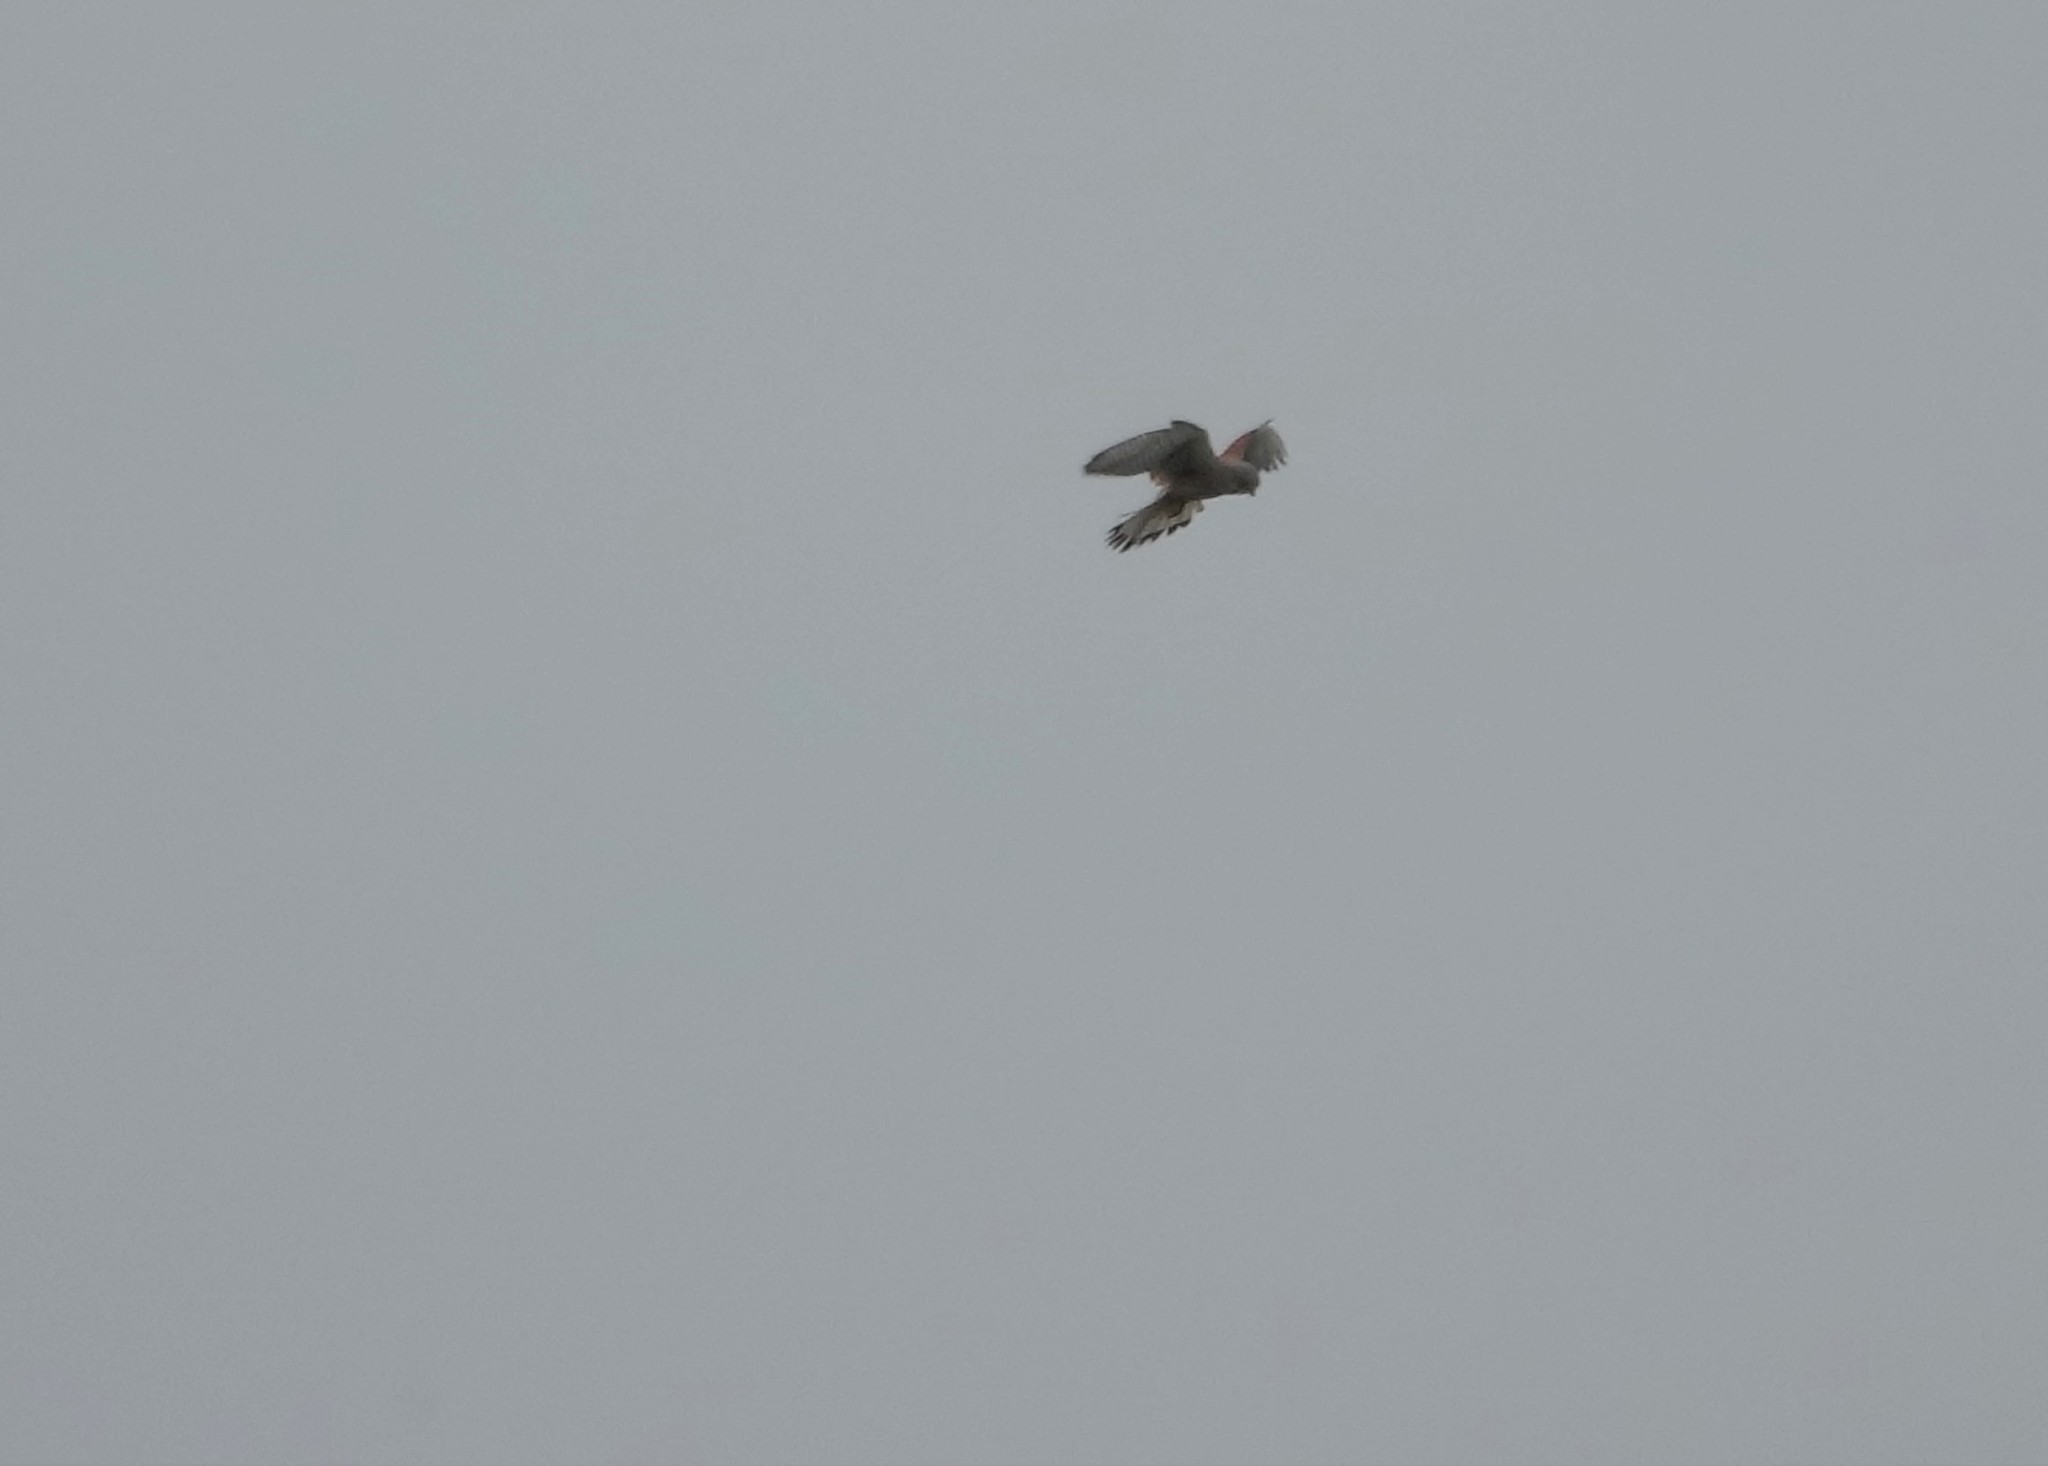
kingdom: Animalia
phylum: Chordata
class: Aves
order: Falconiformes
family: Falconidae
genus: Falco
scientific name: Falco tinnunculus
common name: Common kestrel
